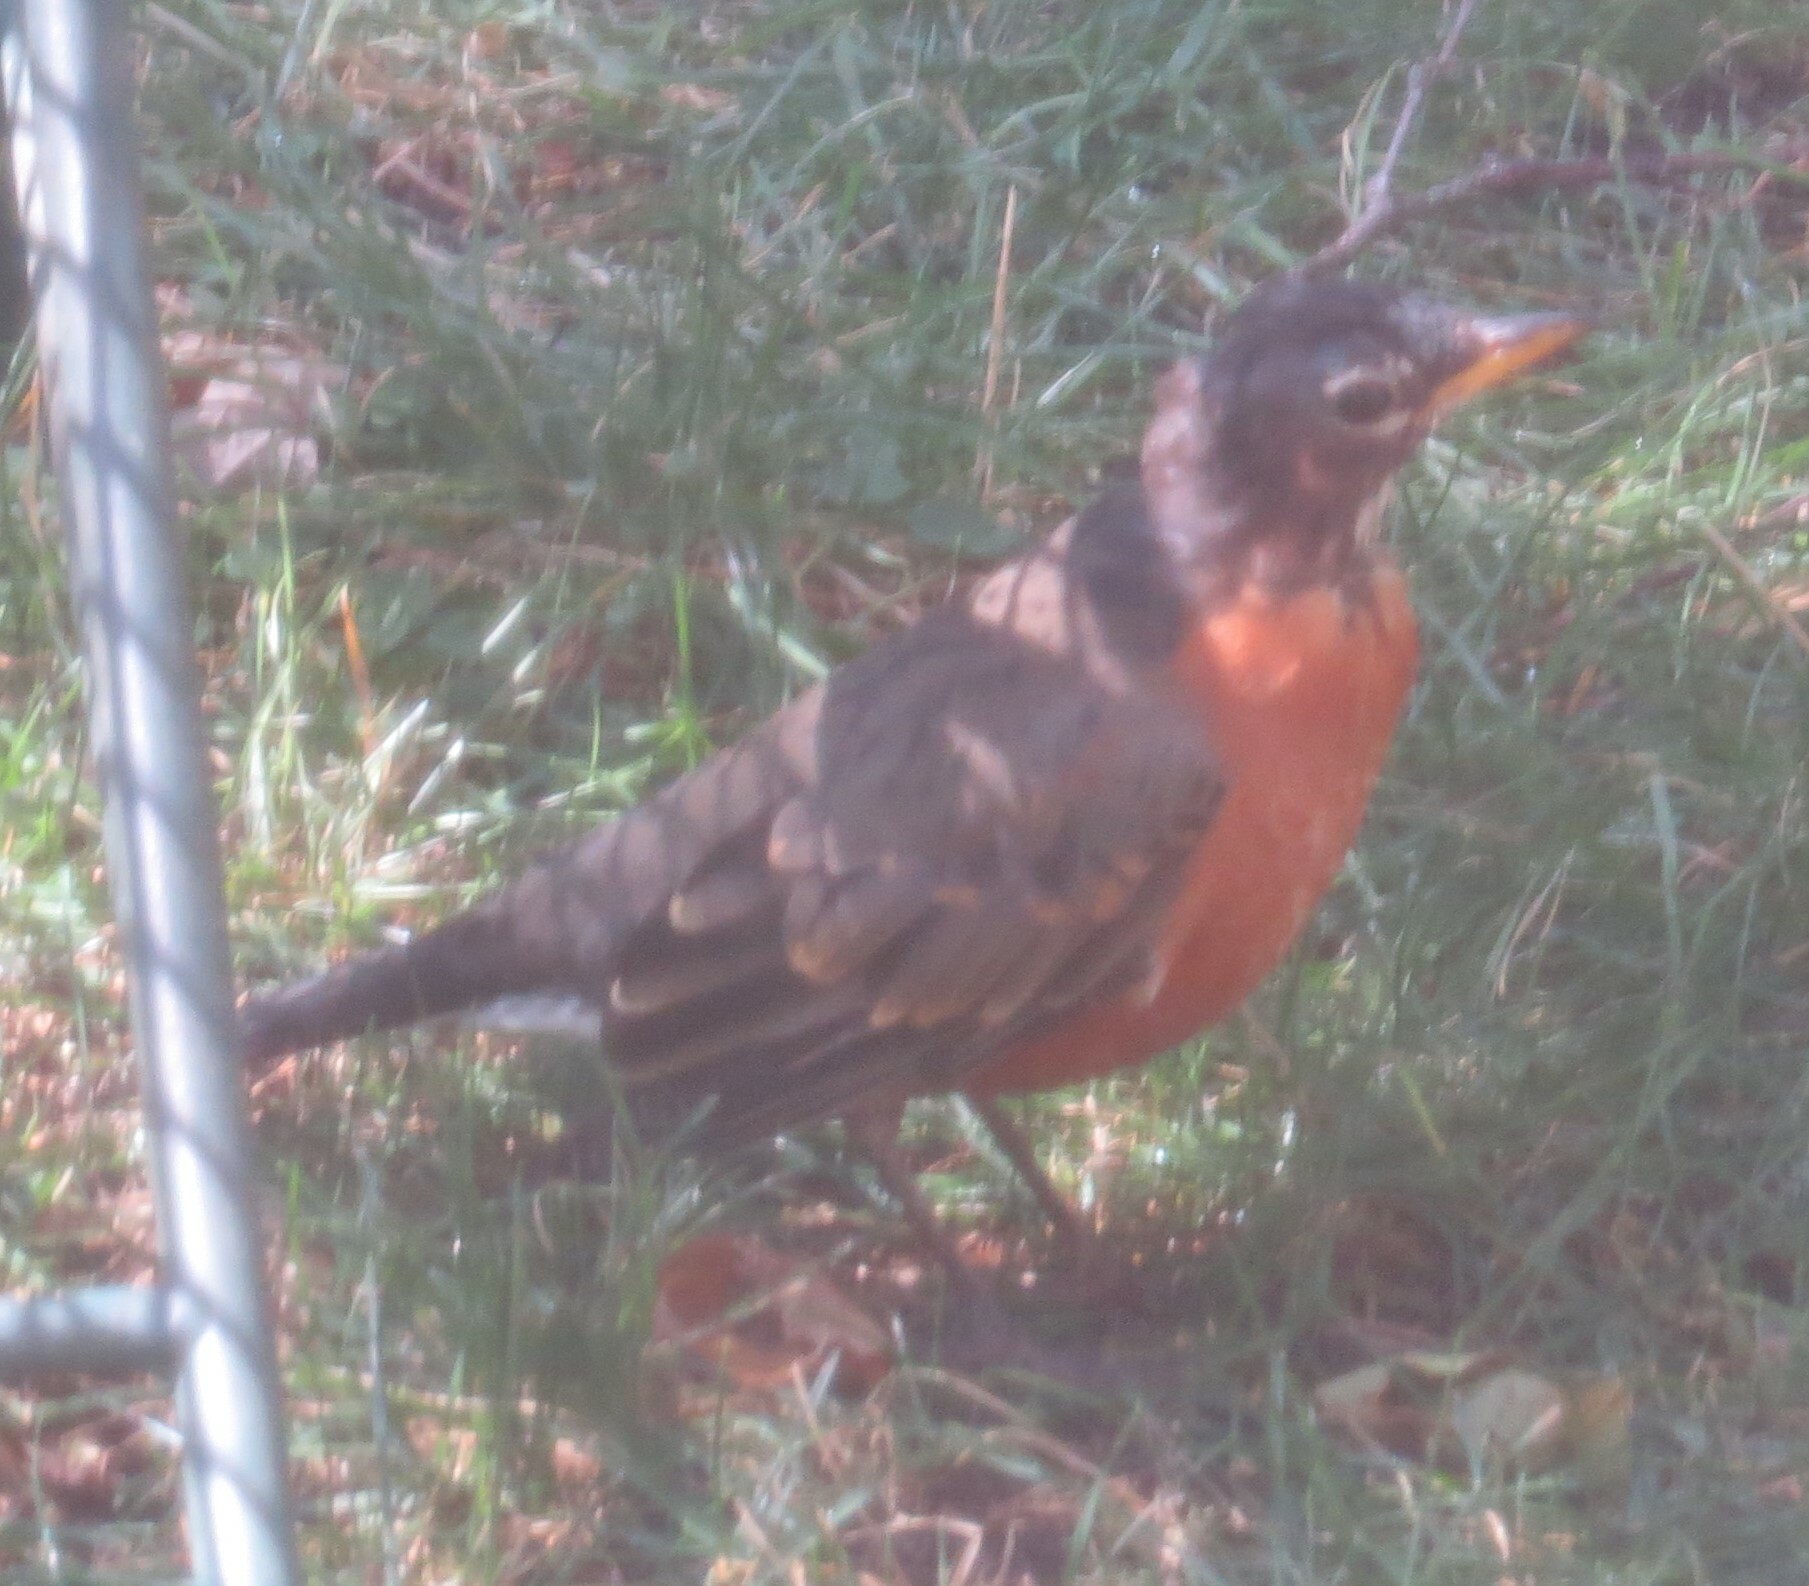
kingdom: Animalia
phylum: Chordata
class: Aves
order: Passeriformes
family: Turdidae
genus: Turdus
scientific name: Turdus migratorius
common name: American robin
